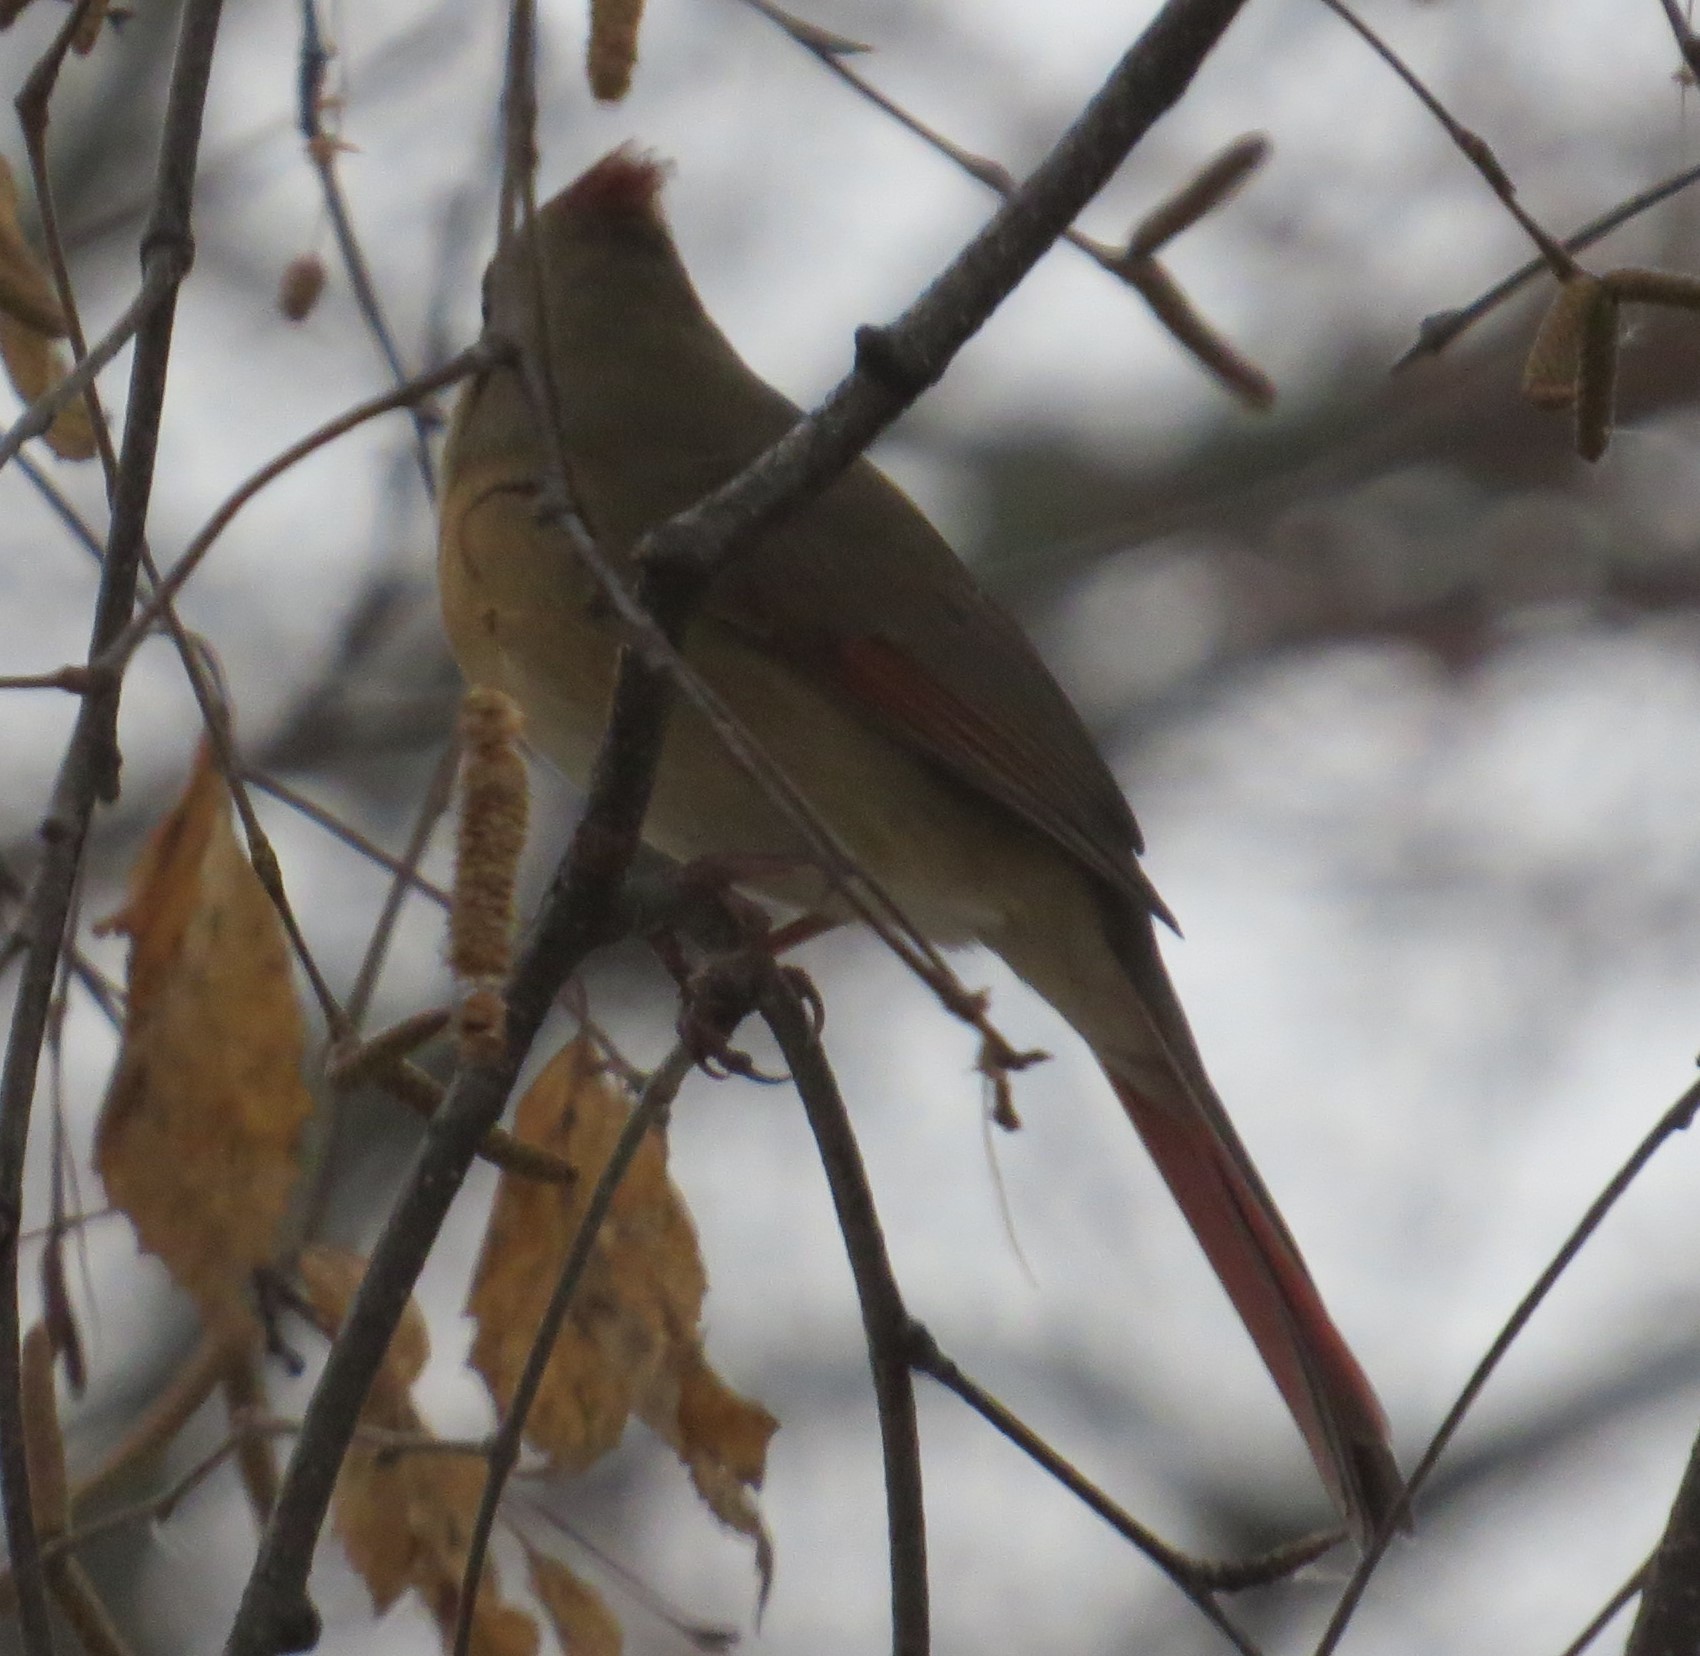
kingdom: Animalia
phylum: Chordata
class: Aves
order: Passeriformes
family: Cardinalidae
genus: Cardinalis
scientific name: Cardinalis cardinalis
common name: Northern cardinal
